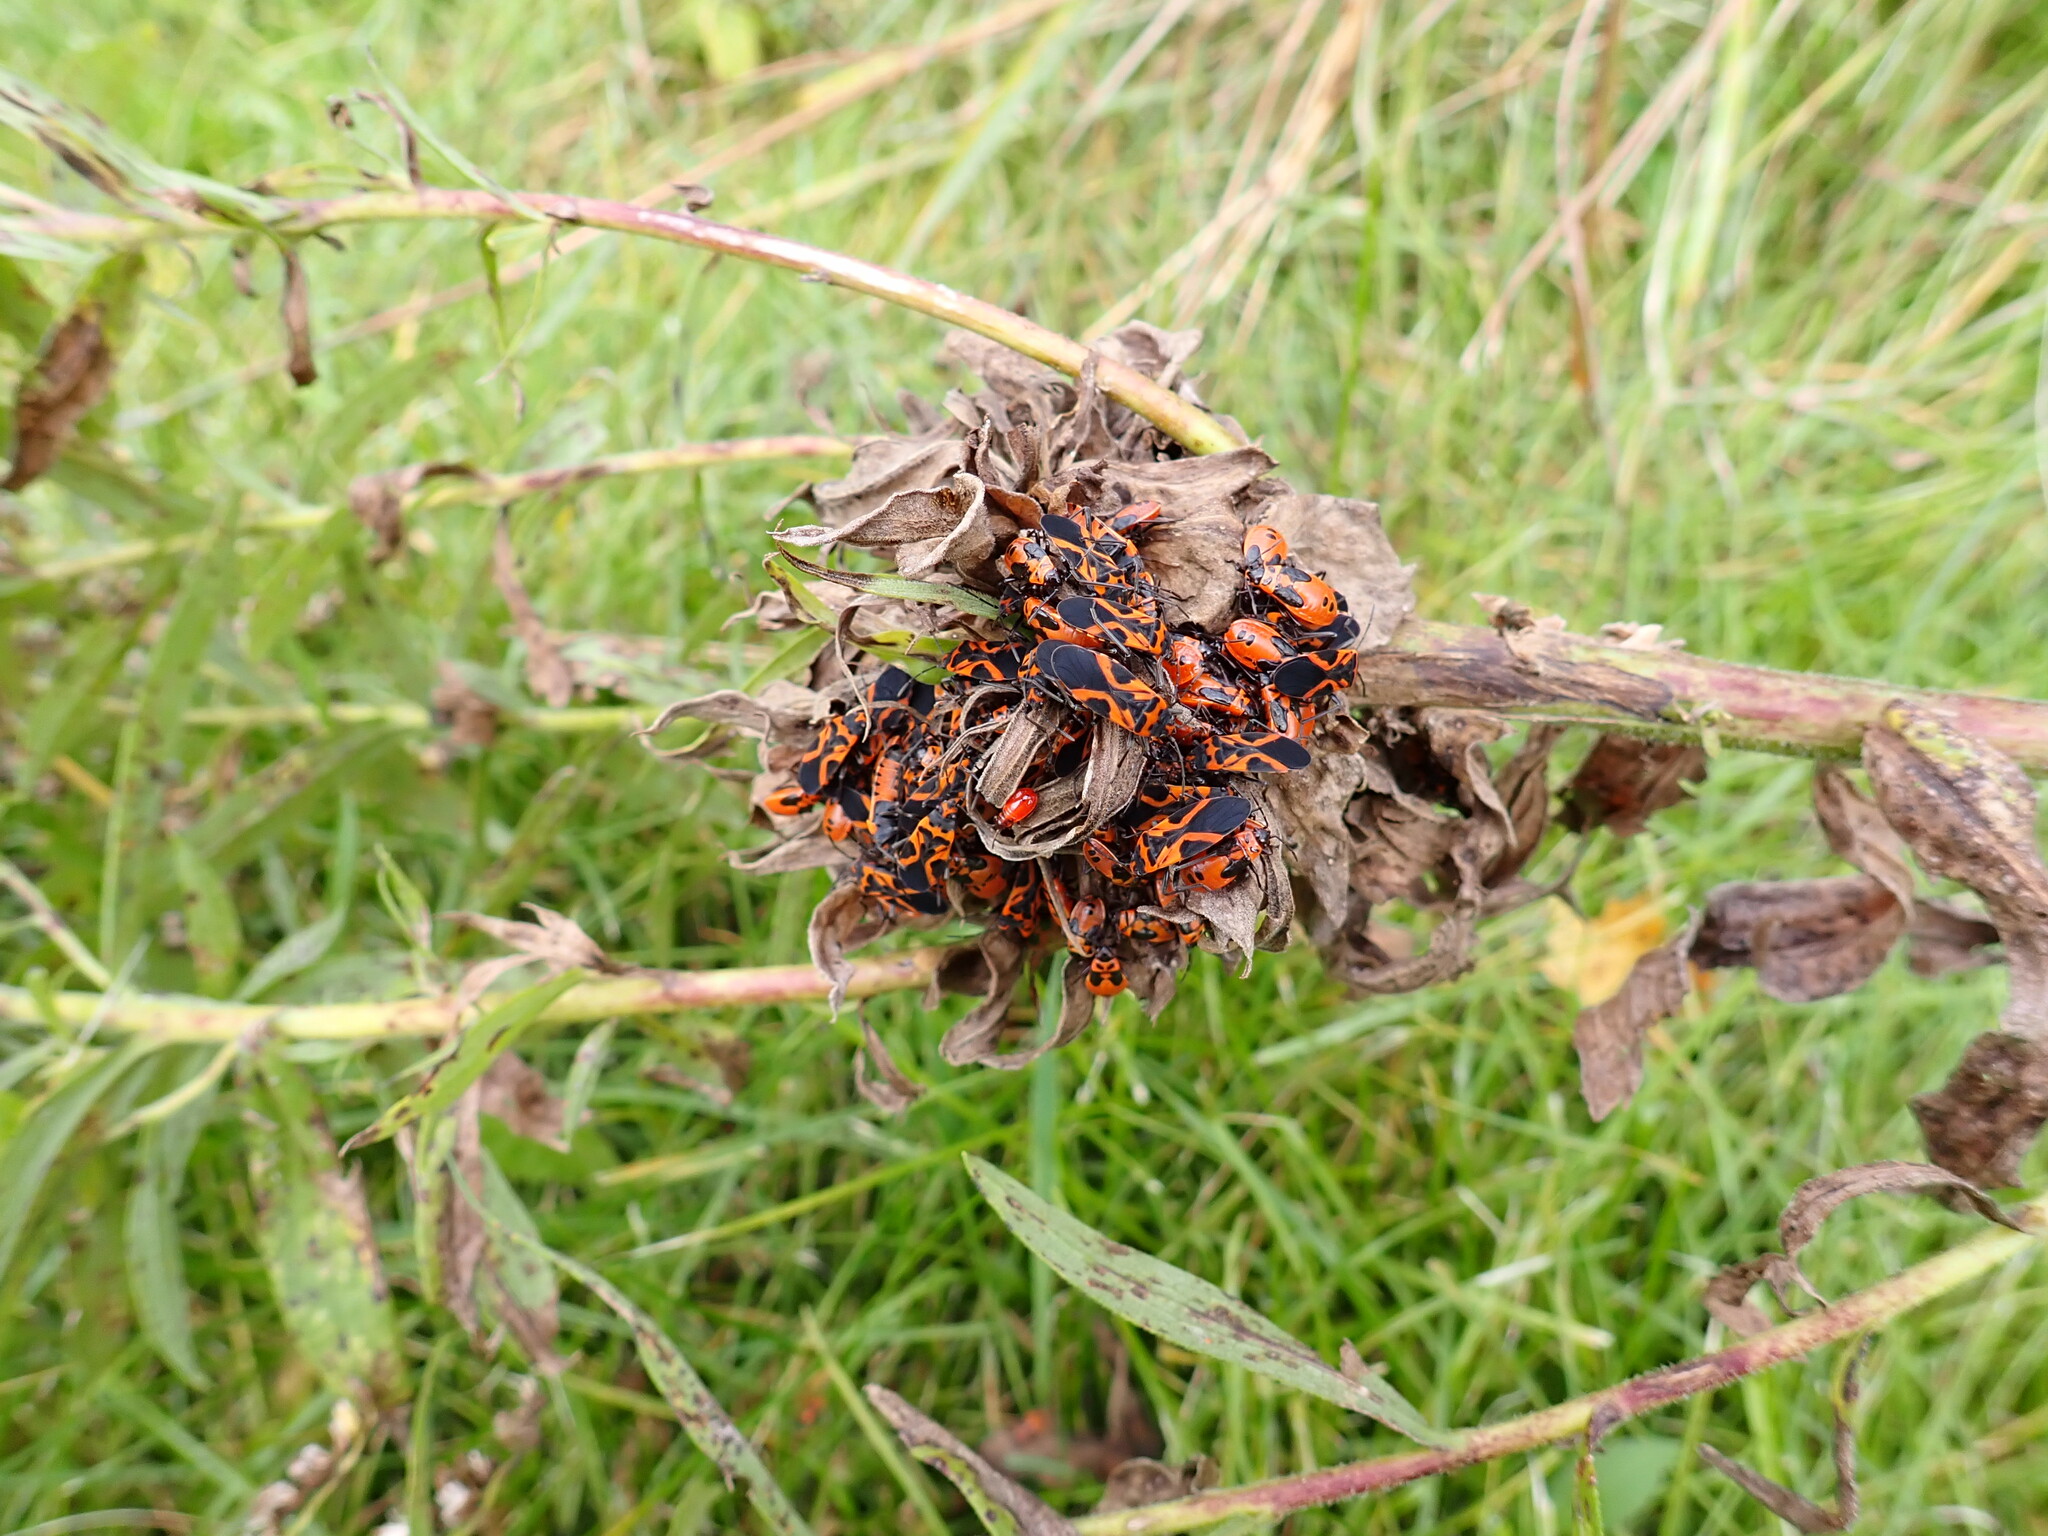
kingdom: Animalia
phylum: Arthropoda
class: Insecta
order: Hemiptera
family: Lygaeidae
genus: Lygaeus
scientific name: Lygaeus turcicus
